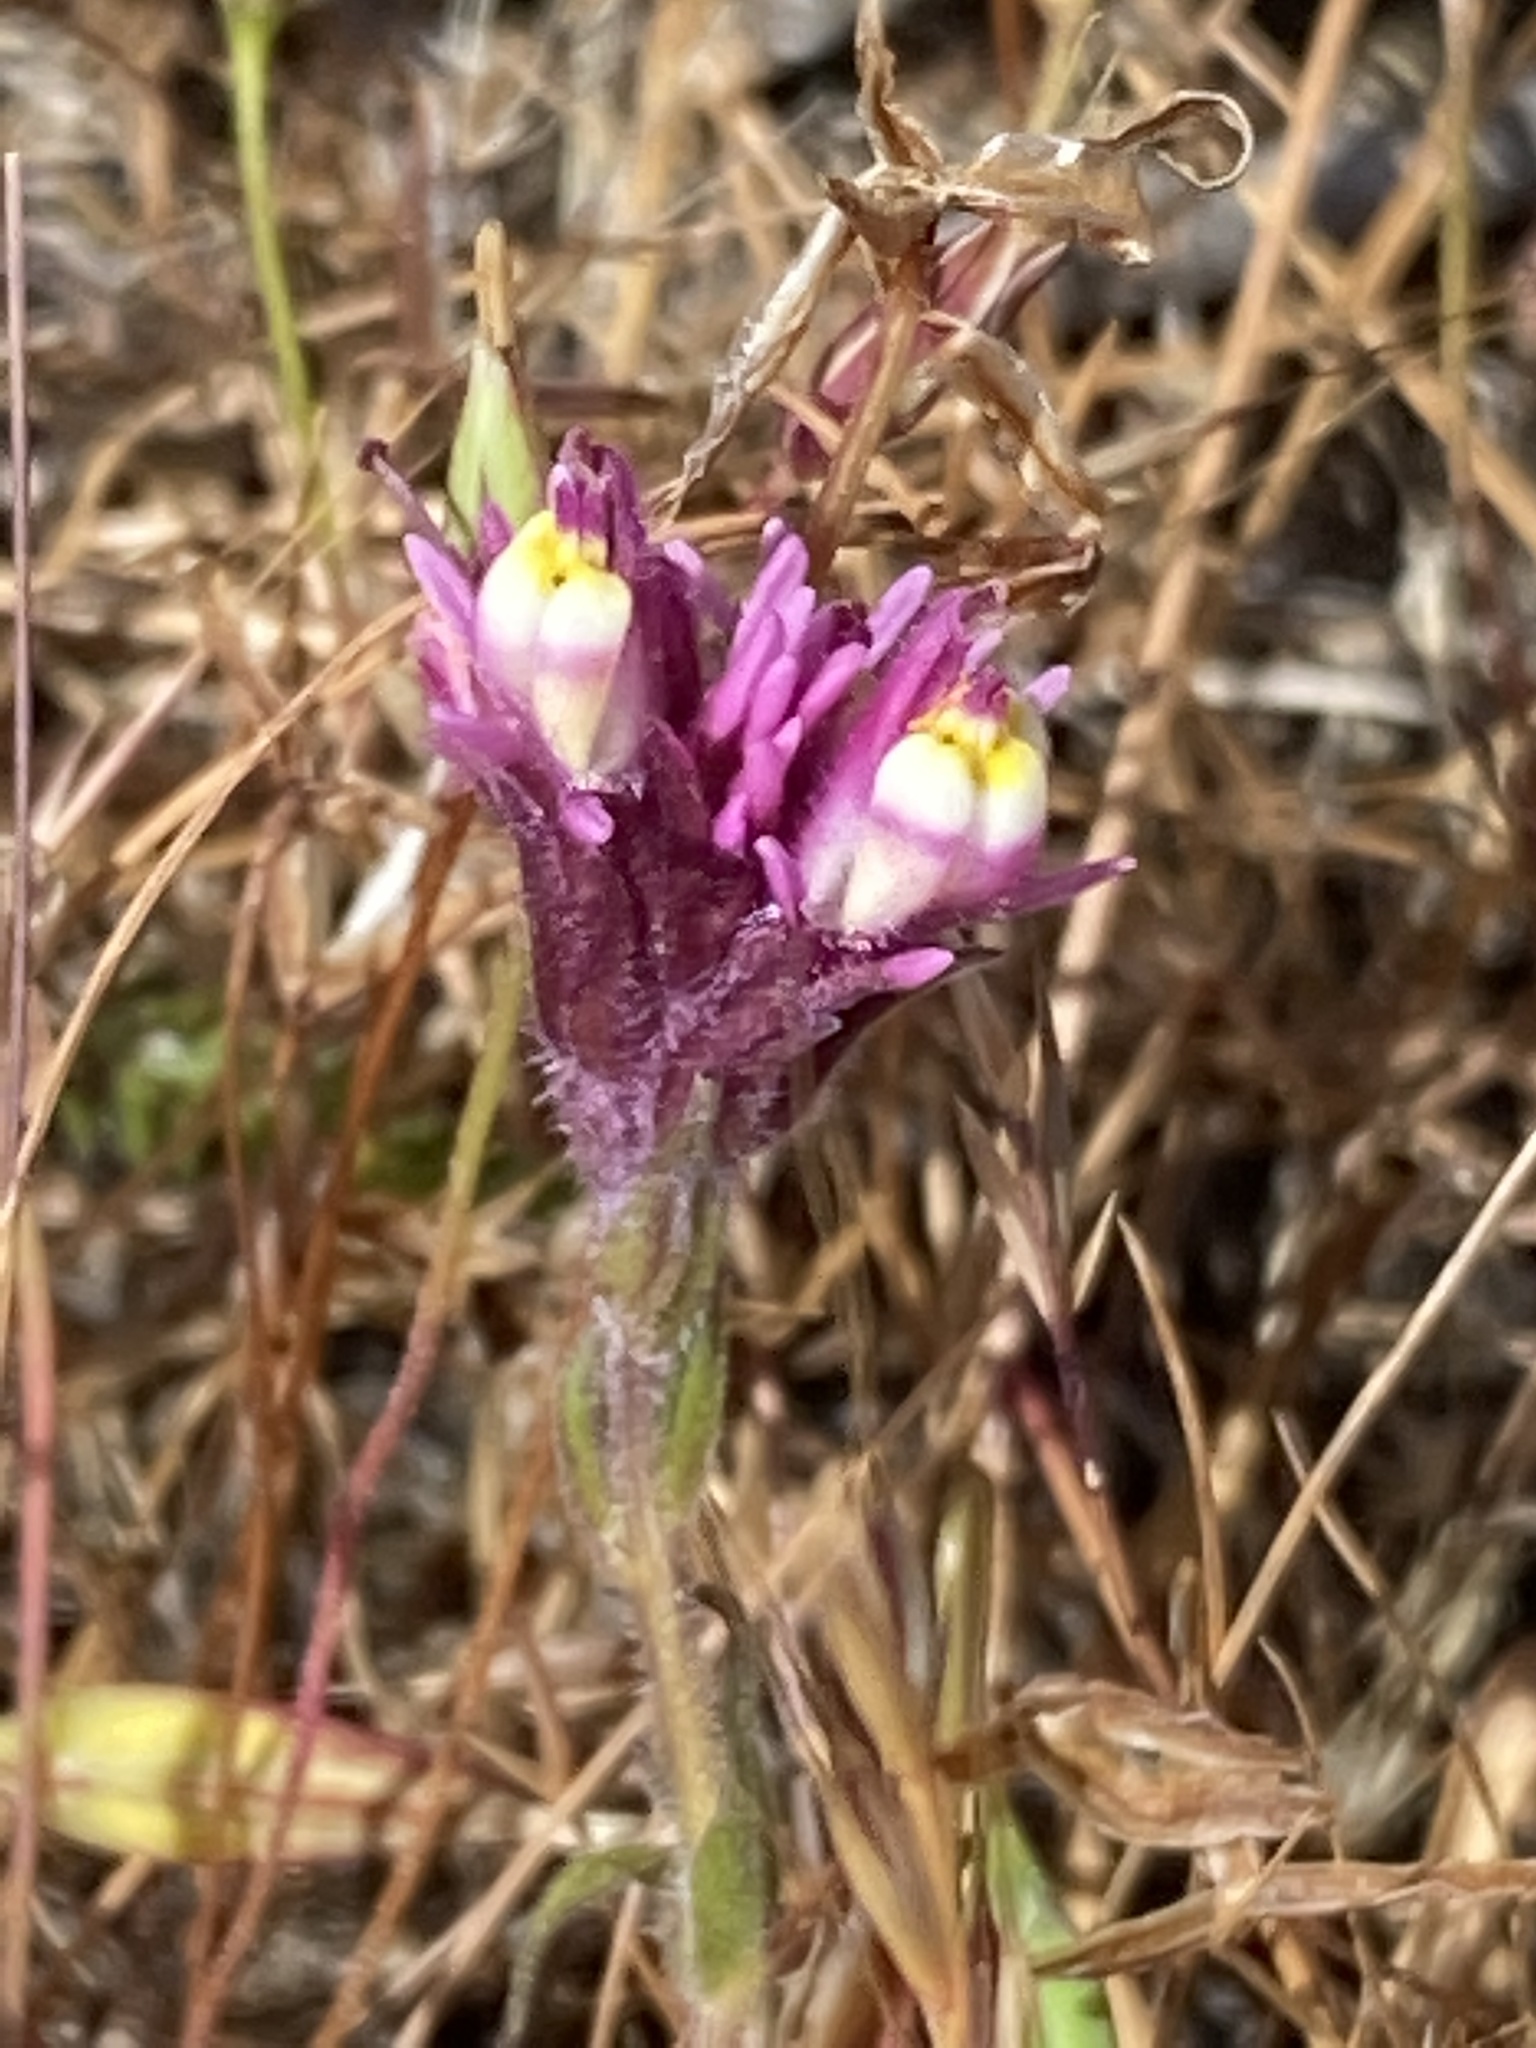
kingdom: Plantae
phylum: Tracheophyta
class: Magnoliopsida
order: Lamiales
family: Orobanchaceae
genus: Castilleja
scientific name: Castilleja densiflora
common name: Dense-flower indian paintbrush
